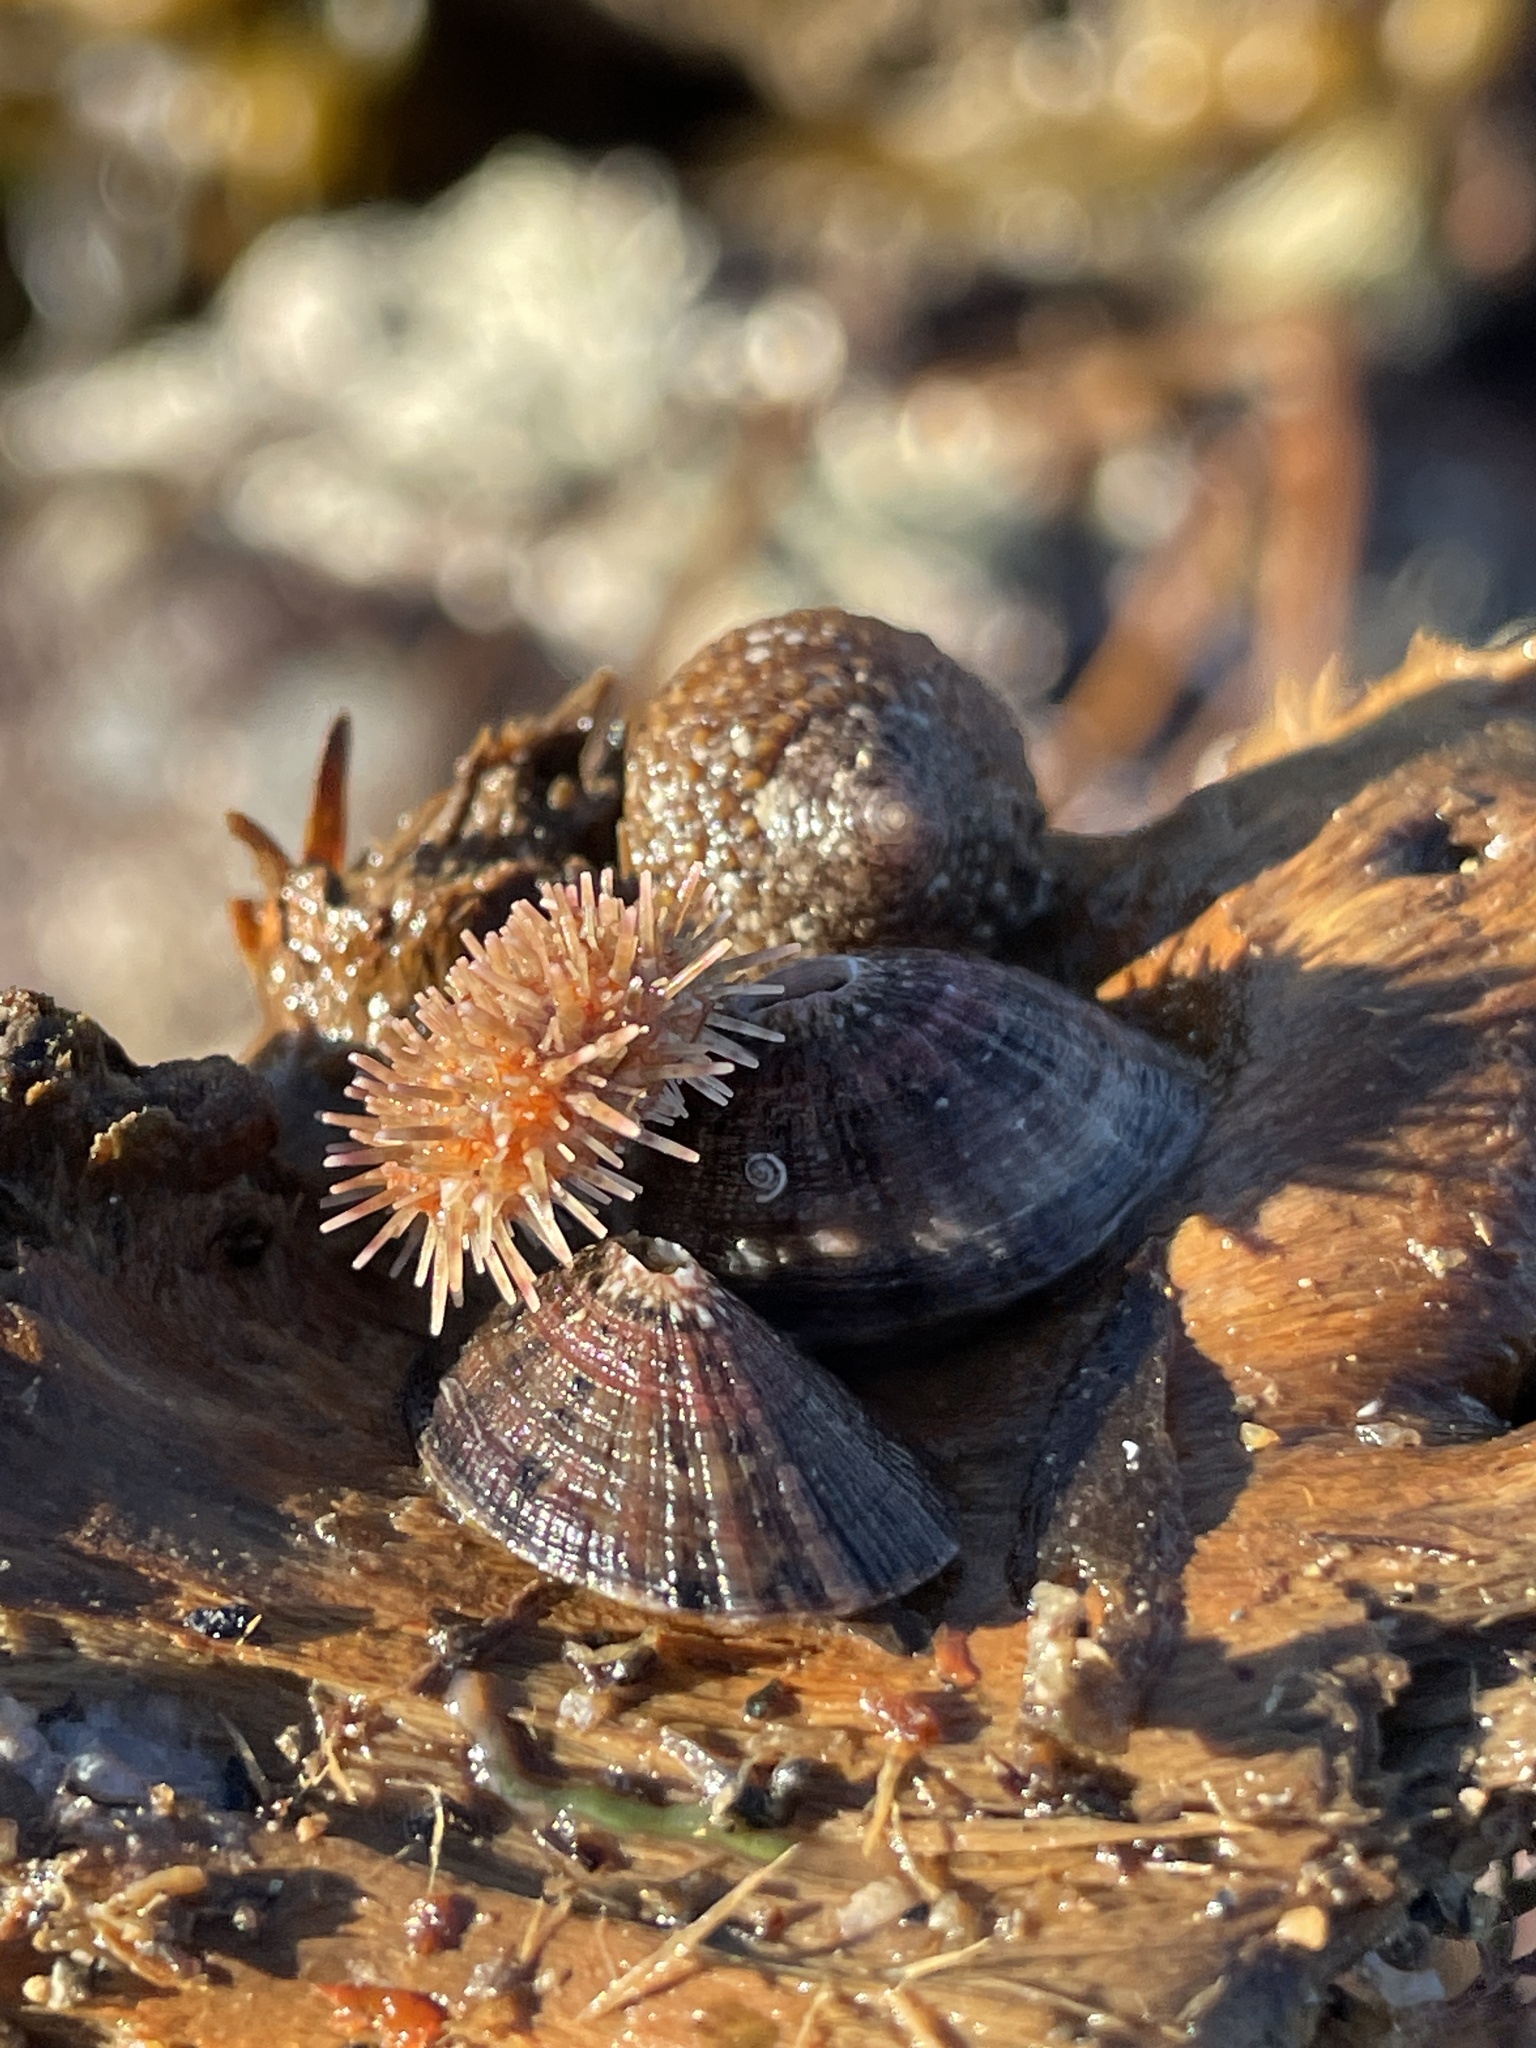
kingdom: Animalia
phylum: Echinodermata
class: Echinoidea
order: Camarodonta
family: Toxopneustidae
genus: Lytechinus
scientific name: Lytechinus pictus
